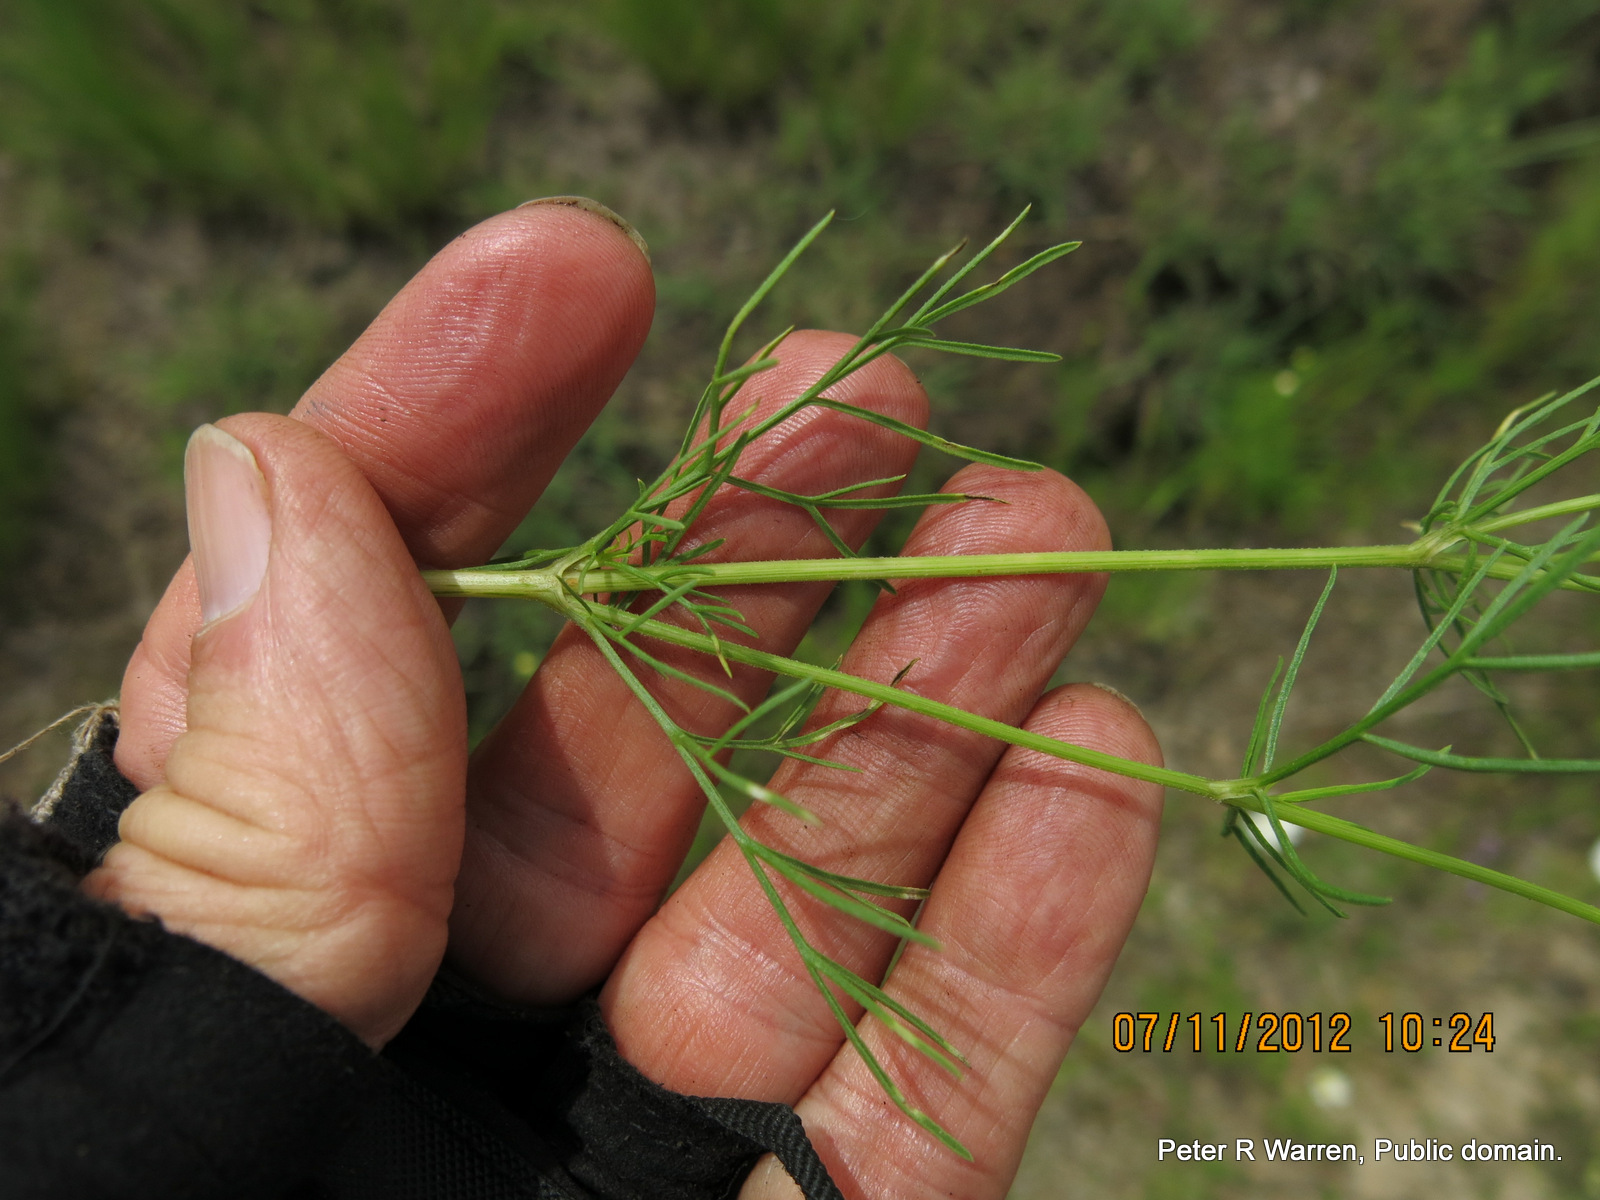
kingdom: Plantae
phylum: Tracheophyta
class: Magnoliopsida
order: Asterales
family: Asteraceae
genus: Cosmos
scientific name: Cosmos bipinnatus
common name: Garden cosmos
